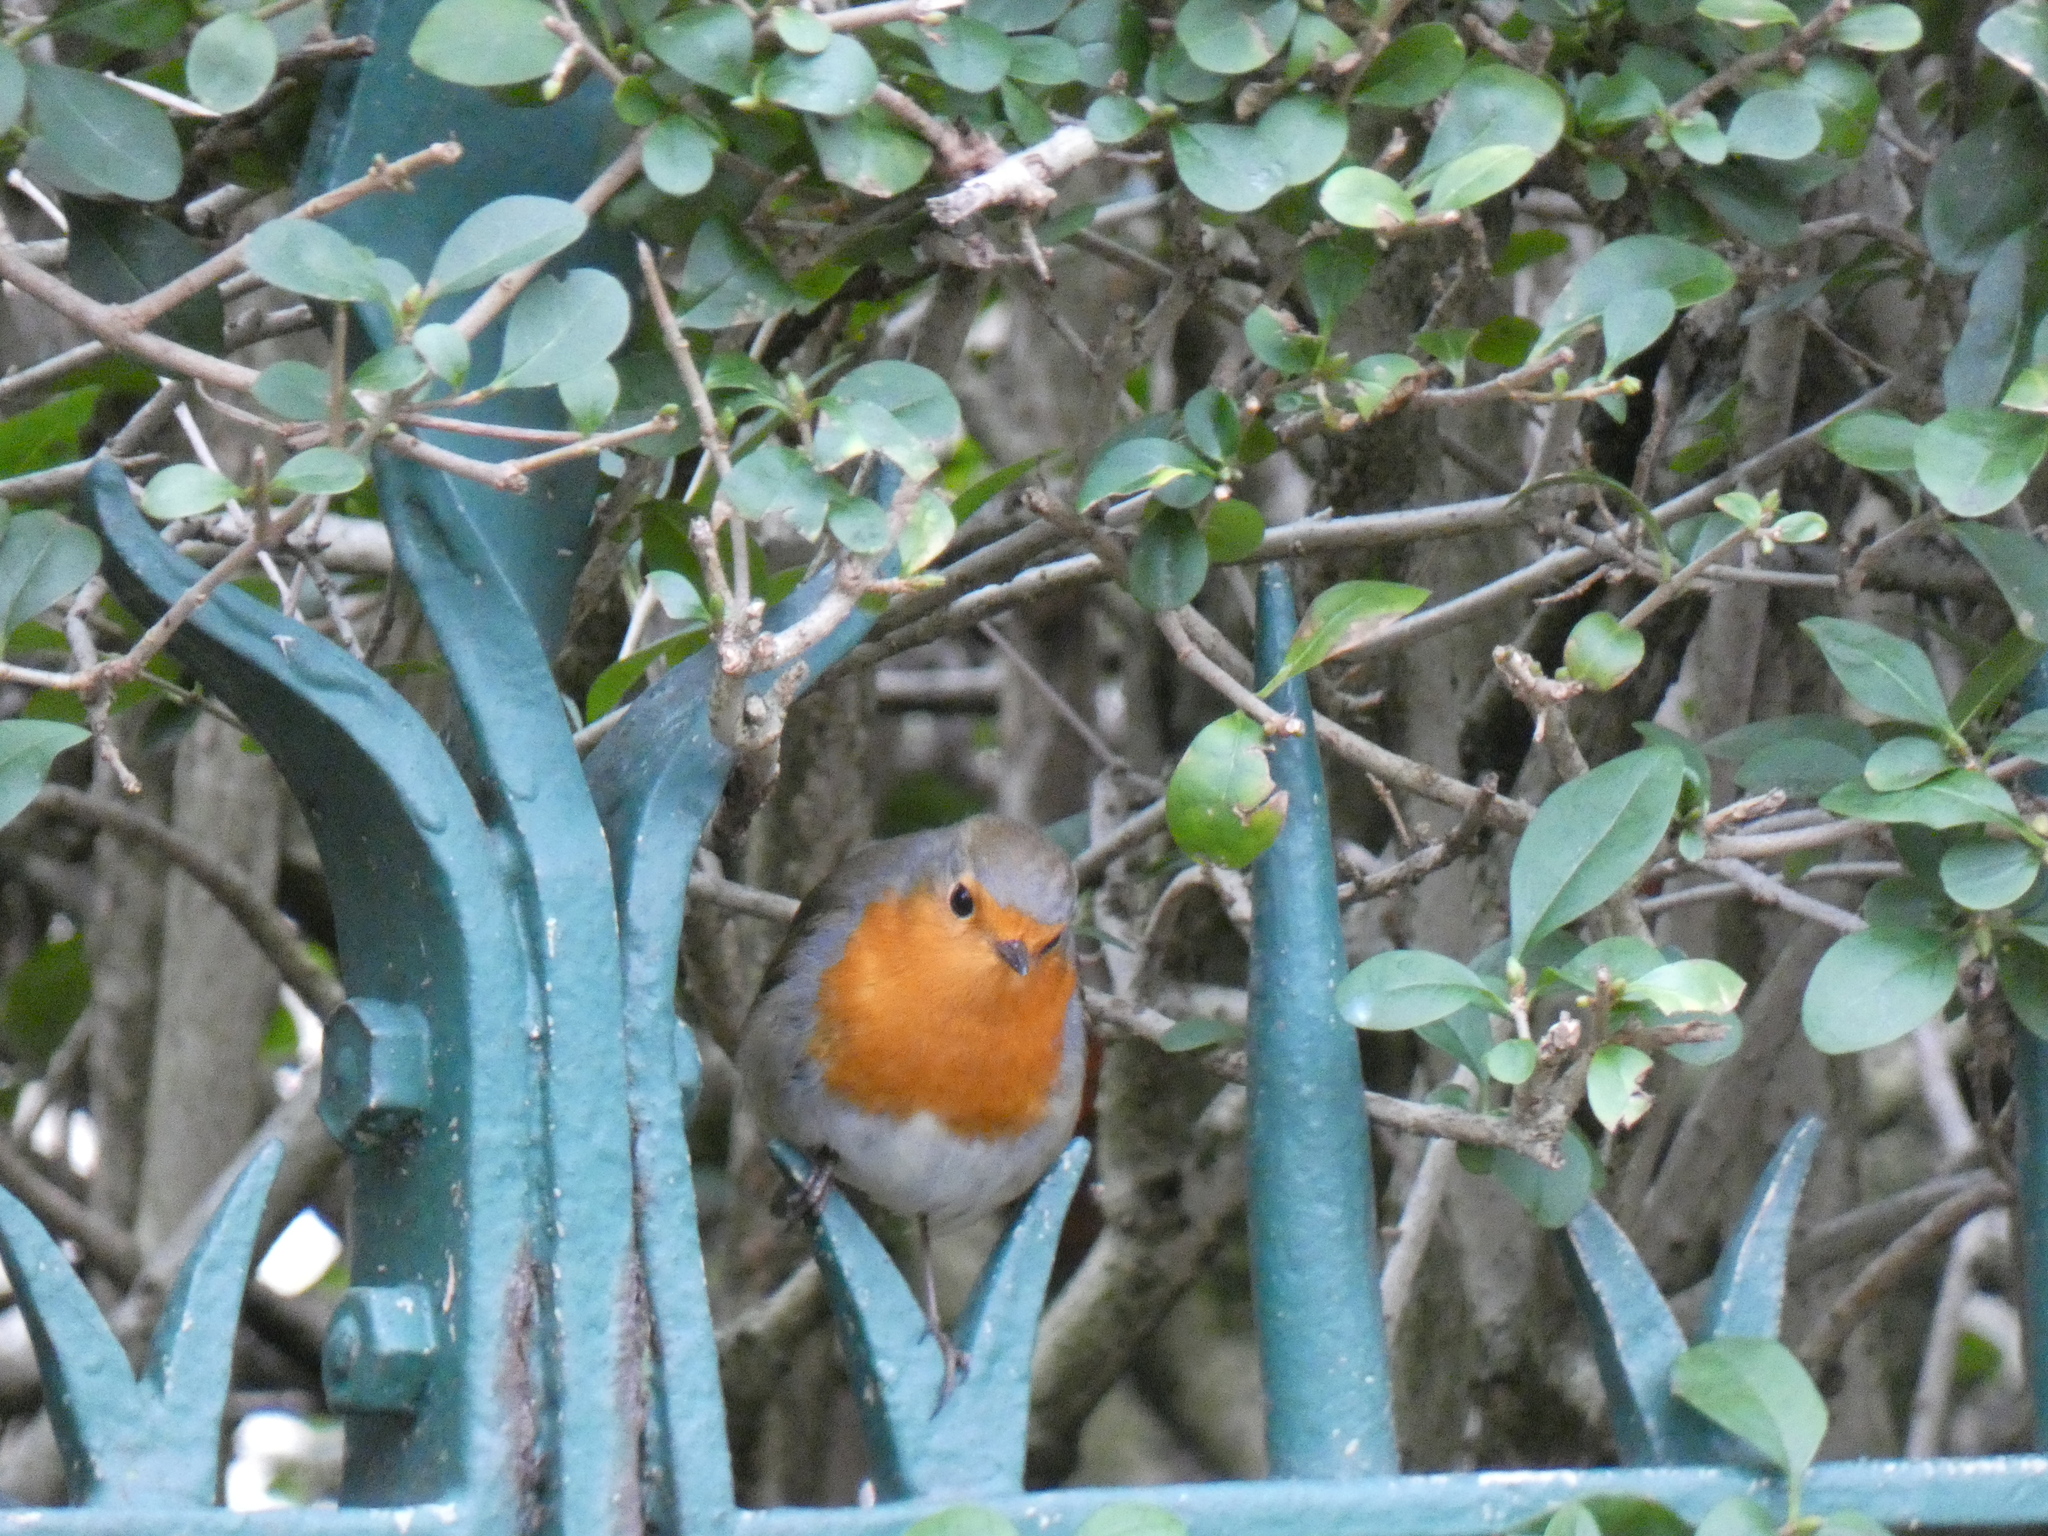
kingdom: Animalia
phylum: Chordata
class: Aves
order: Passeriformes
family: Muscicapidae
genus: Erithacus
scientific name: Erithacus rubecula
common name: European robin
